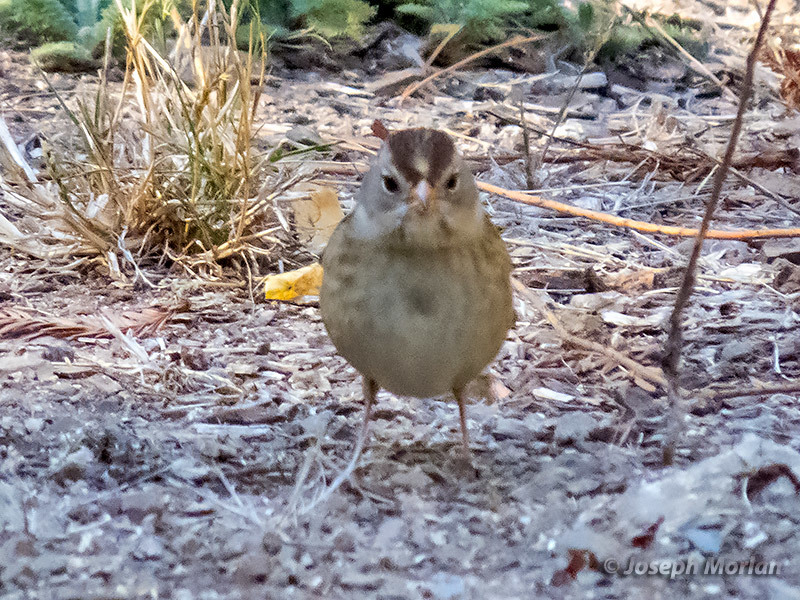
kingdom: Animalia
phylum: Chordata
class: Aves
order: Passeriformes
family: Passerellidae
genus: Zonotrichia
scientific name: Zonotrichia leucophrys
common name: White-crowned sparrow
